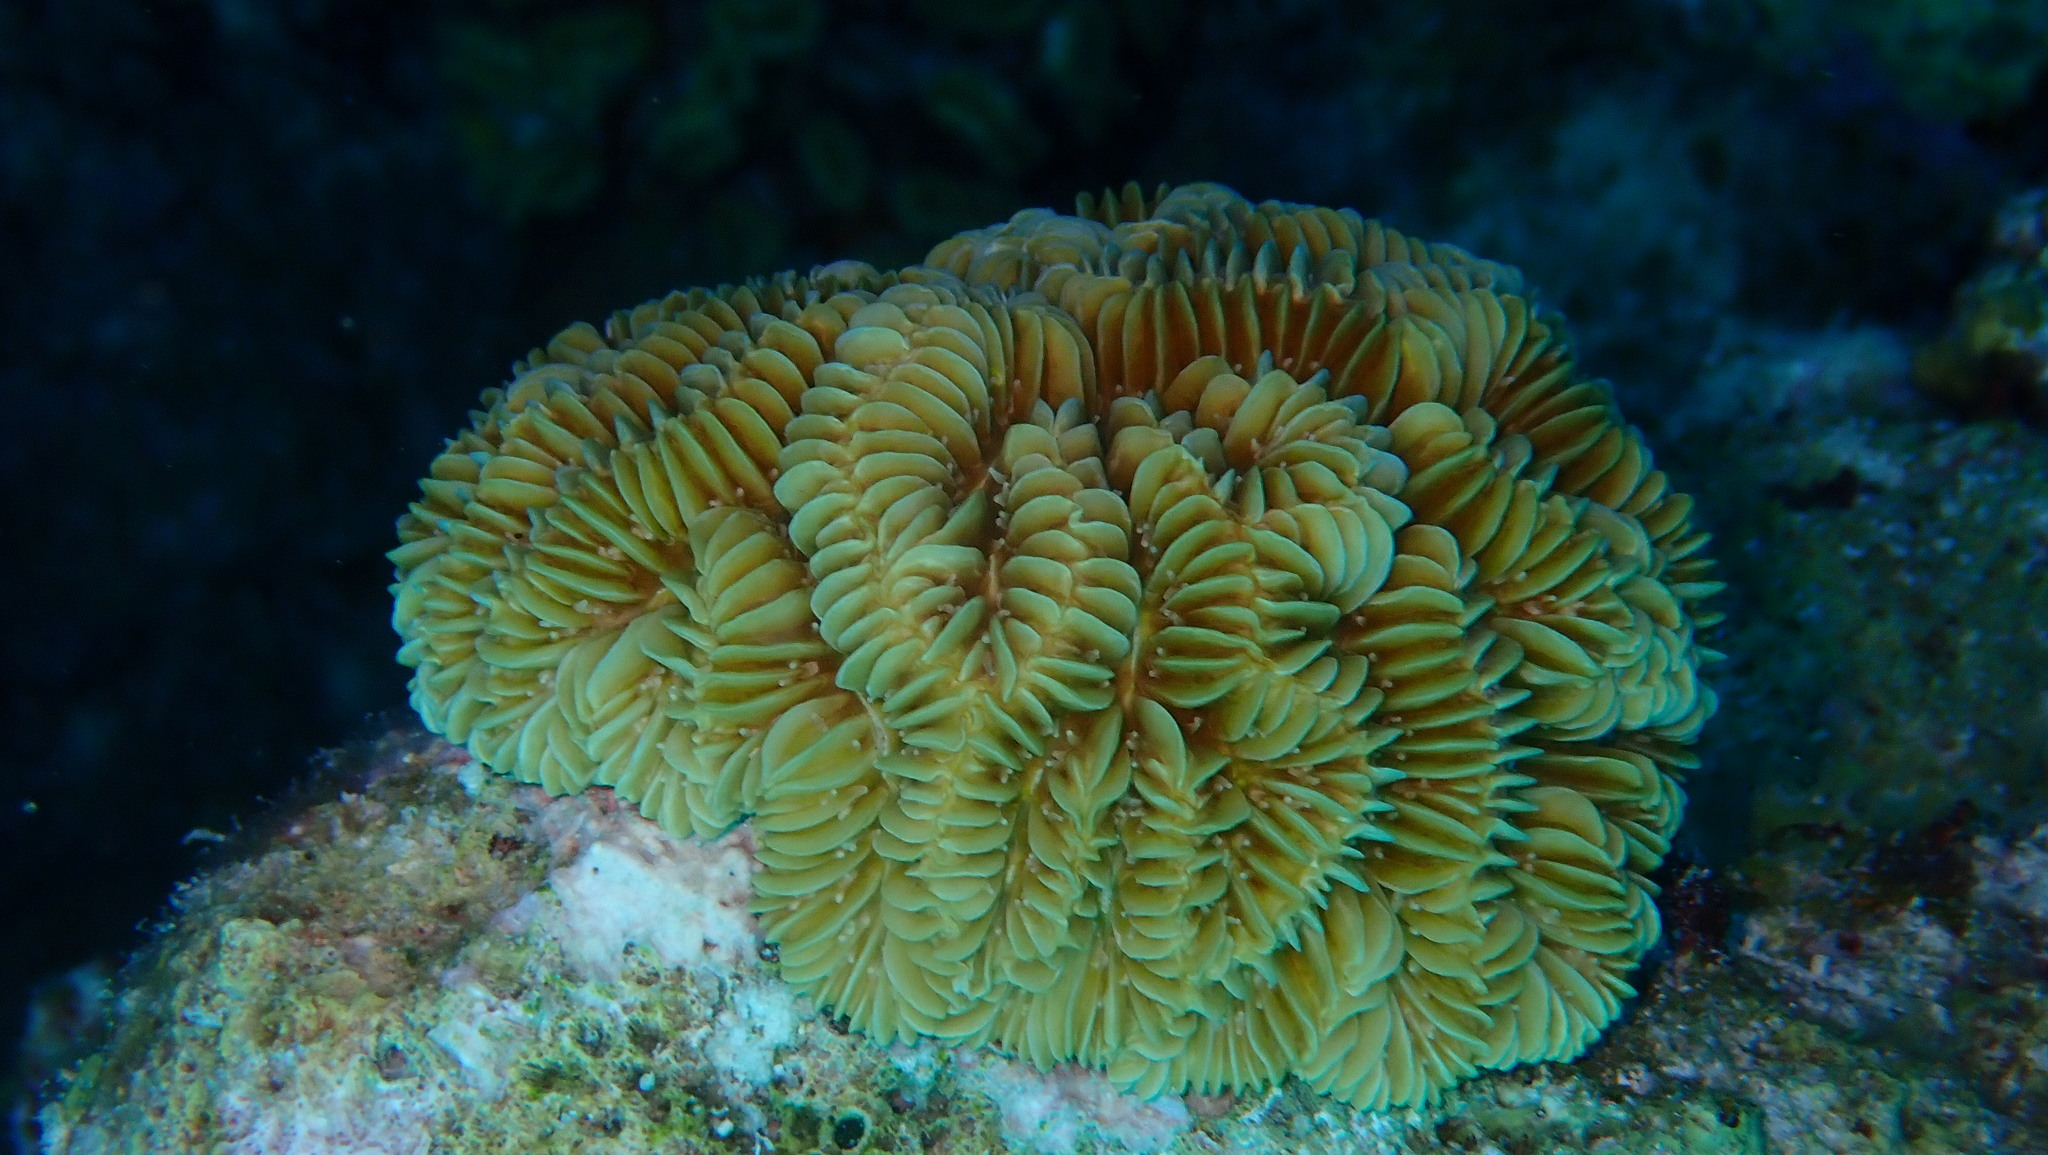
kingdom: Animalia
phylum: Cnidaria
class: Anthozoa
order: Scleractinia
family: Meandrinidae
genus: Meandrina
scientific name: Meandrina meandrites
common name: Maze coral
